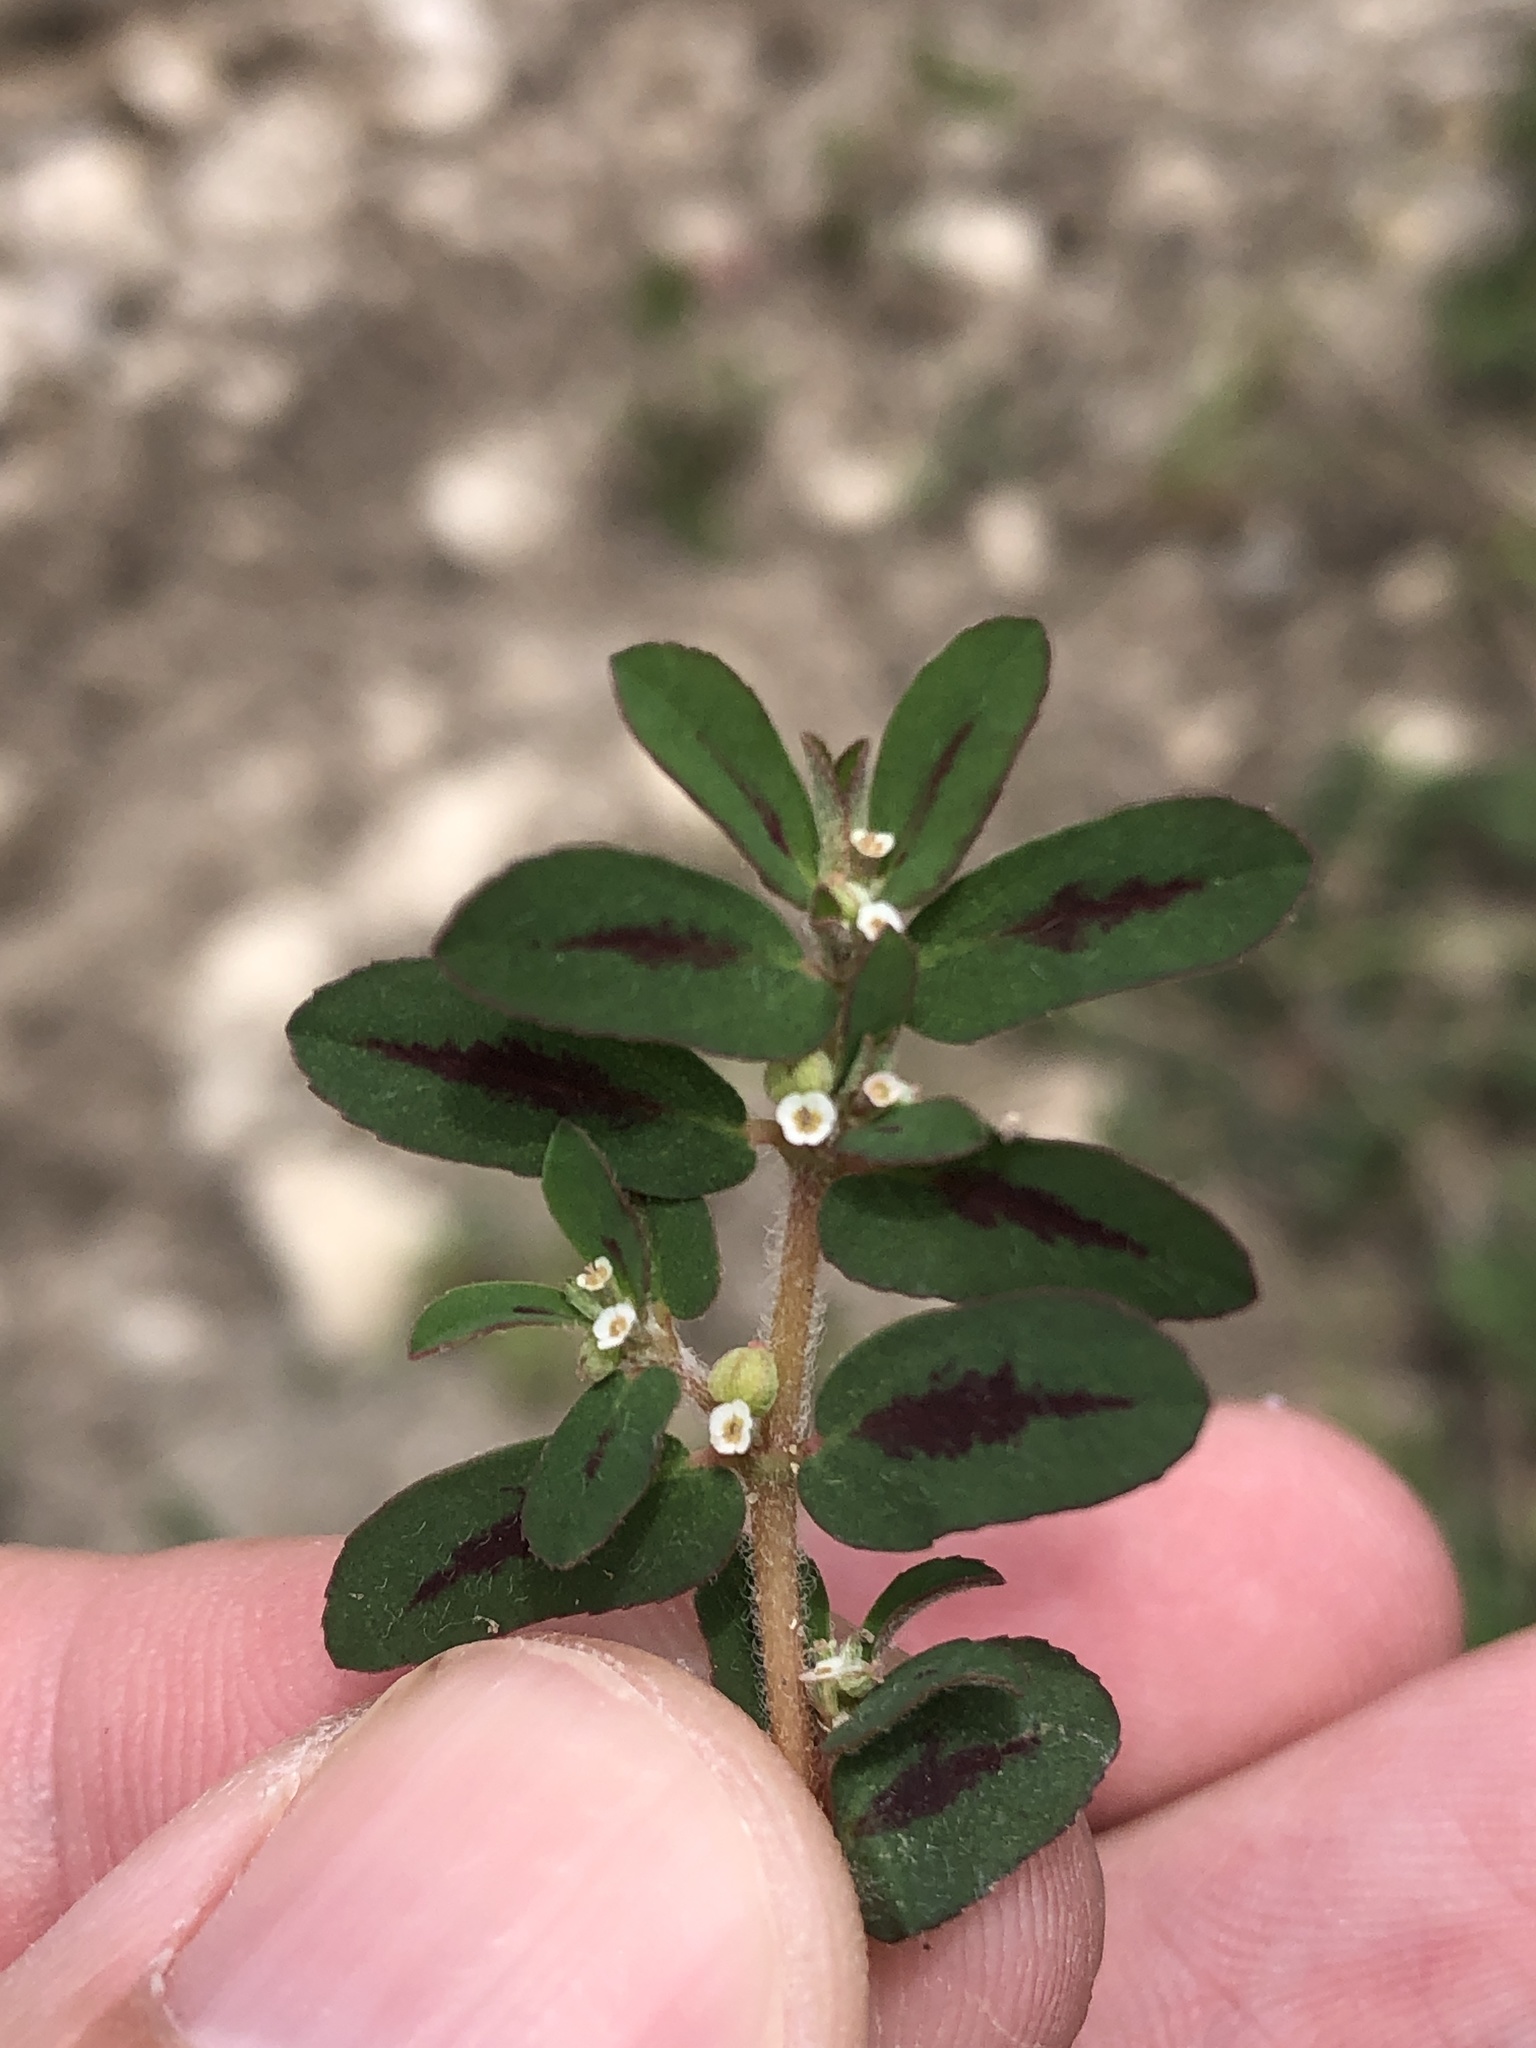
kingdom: Plantae
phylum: Tracheophyta
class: Magnoliopsida
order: Malpighiales
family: Euphorbiaceae
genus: Euphorbia
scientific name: Euphorbia maculata
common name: Spotted spurge
